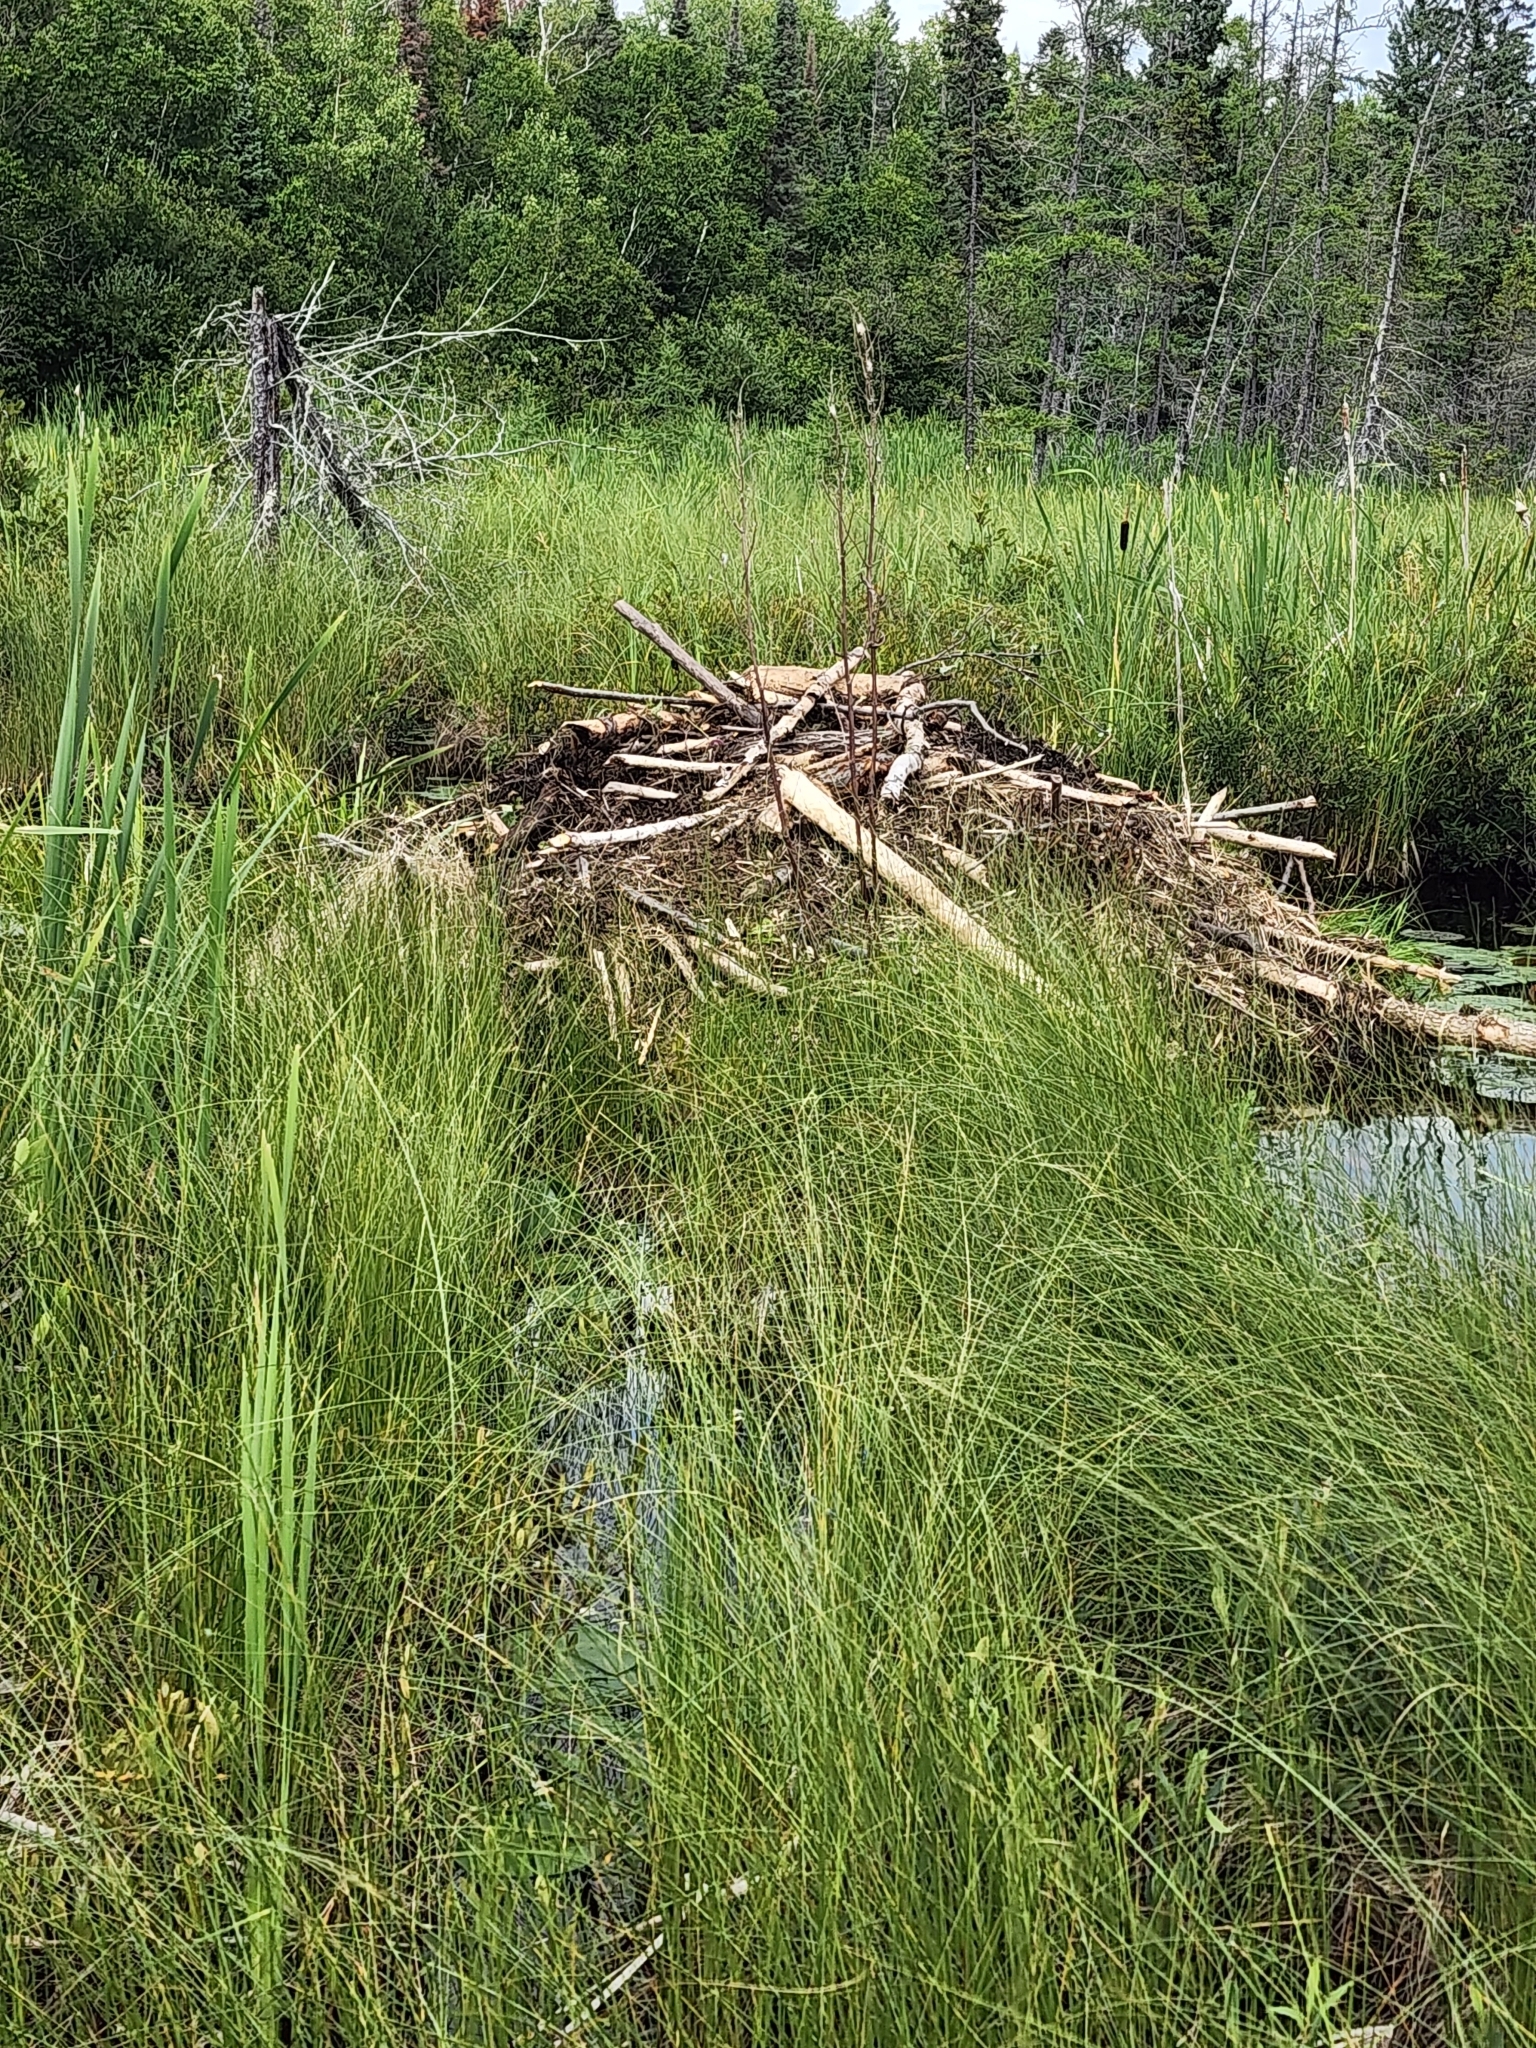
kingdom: Animalia
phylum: Chordata
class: Mammalia
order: Rodentia
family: Castoridae
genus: Castor
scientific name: Castor canadensis
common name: American beaver
